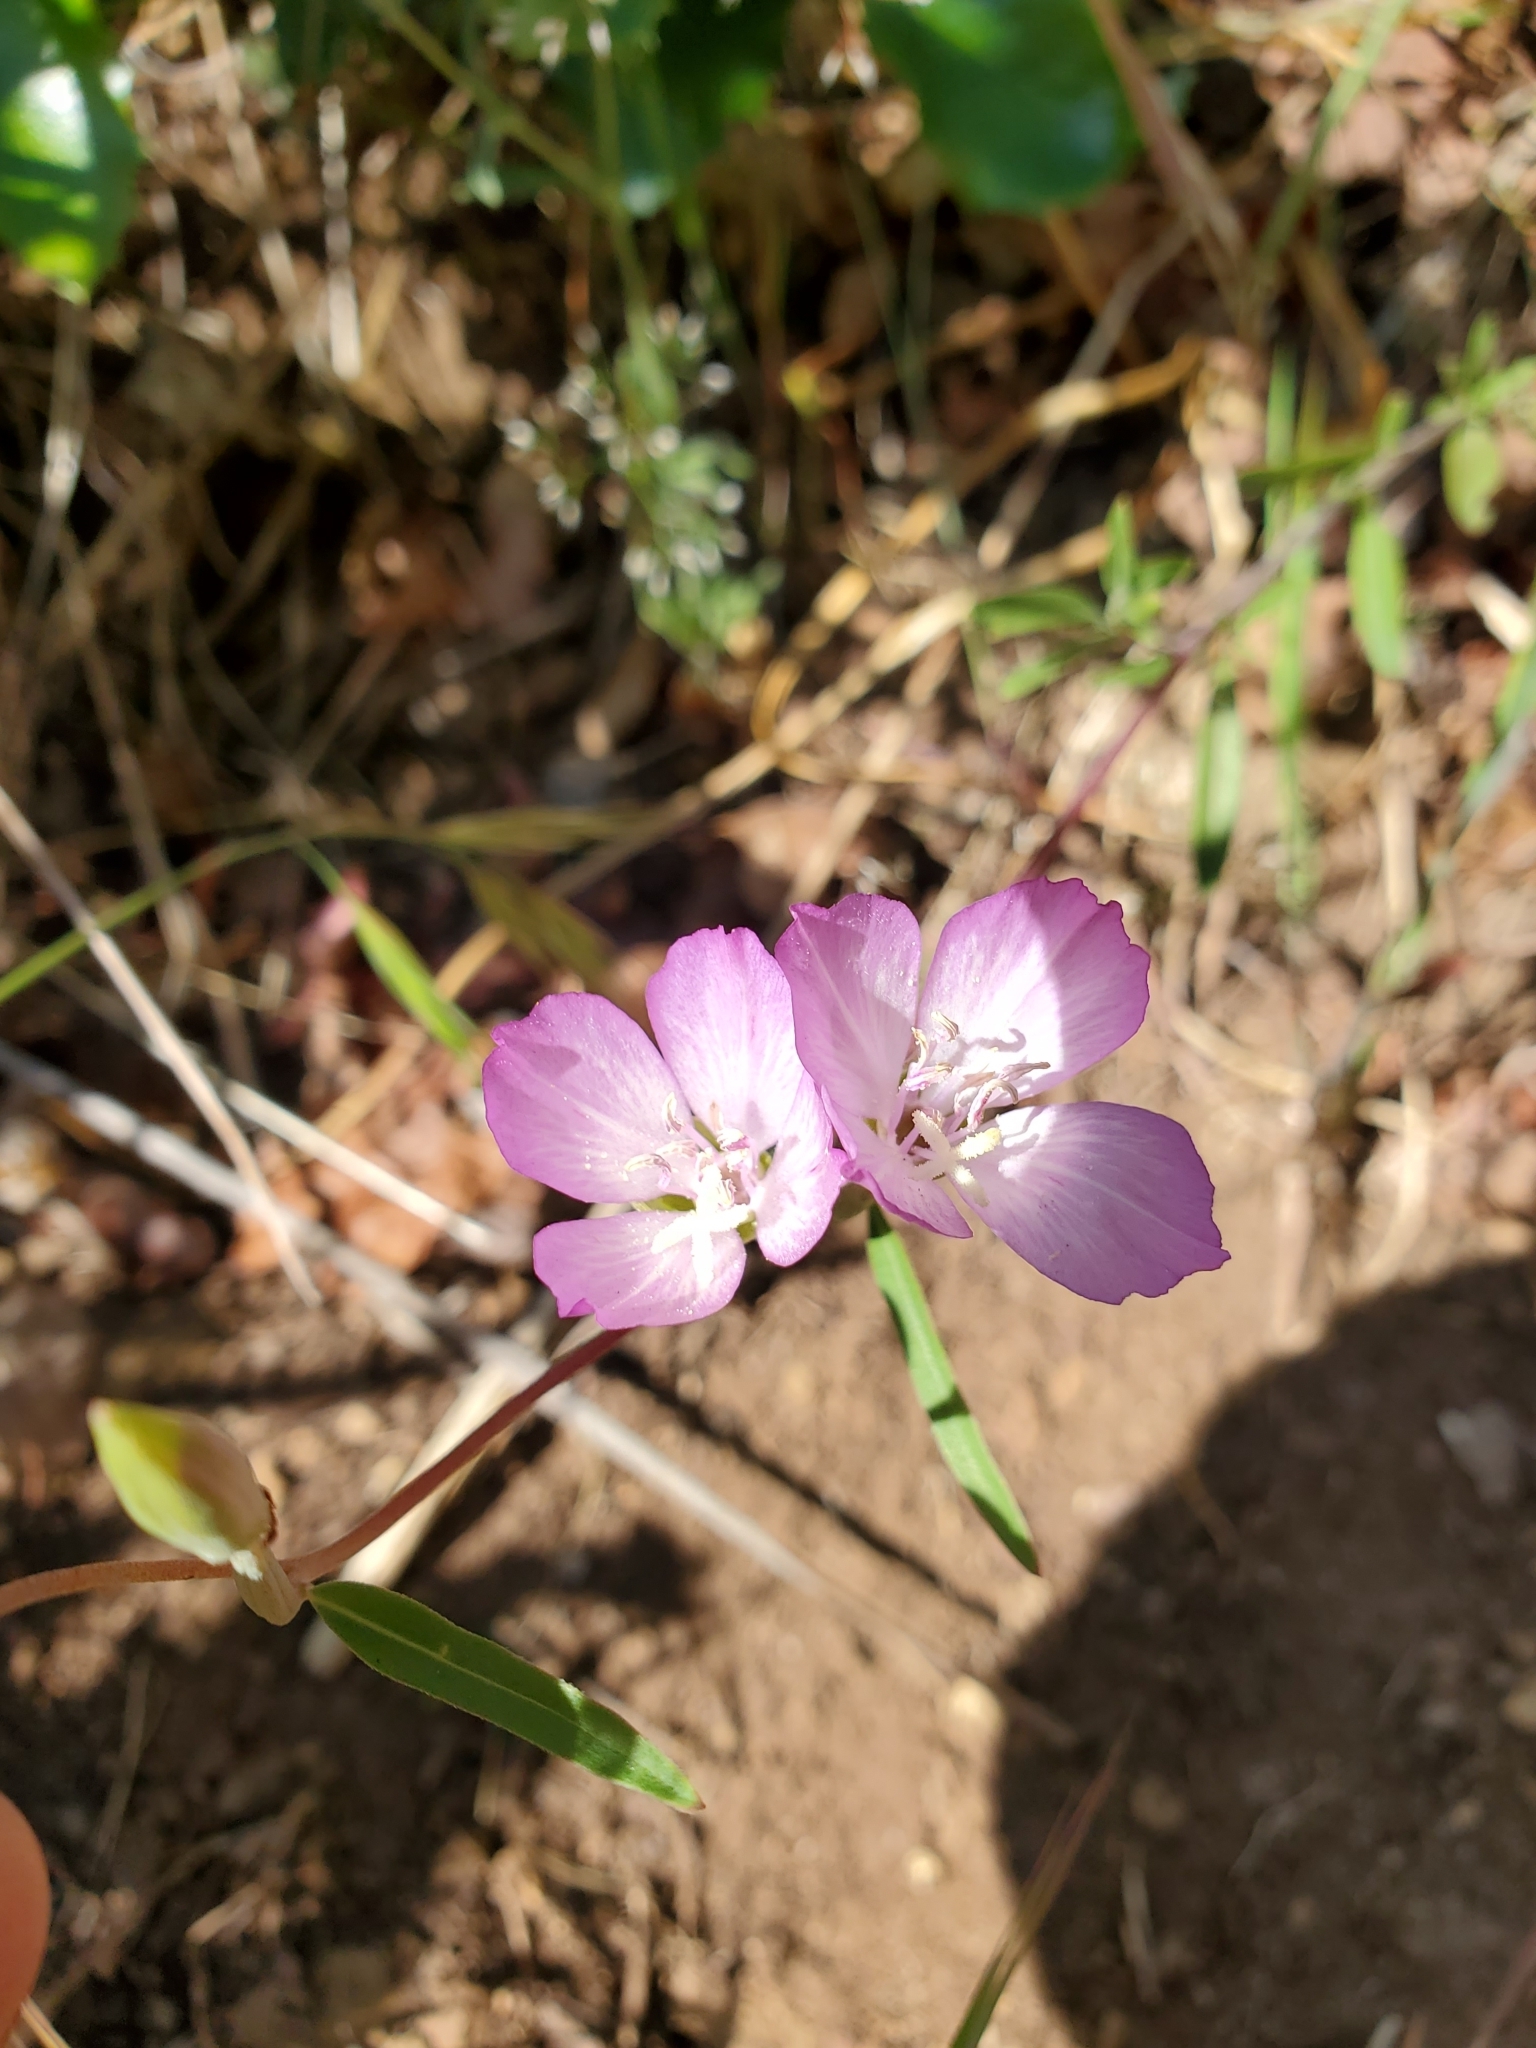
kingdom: Plantae
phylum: Tracheophyta
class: Magnoliopsida
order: Myrtales
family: Onagraceae
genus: Clarkia
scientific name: Clarkia amoena
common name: Godetia
